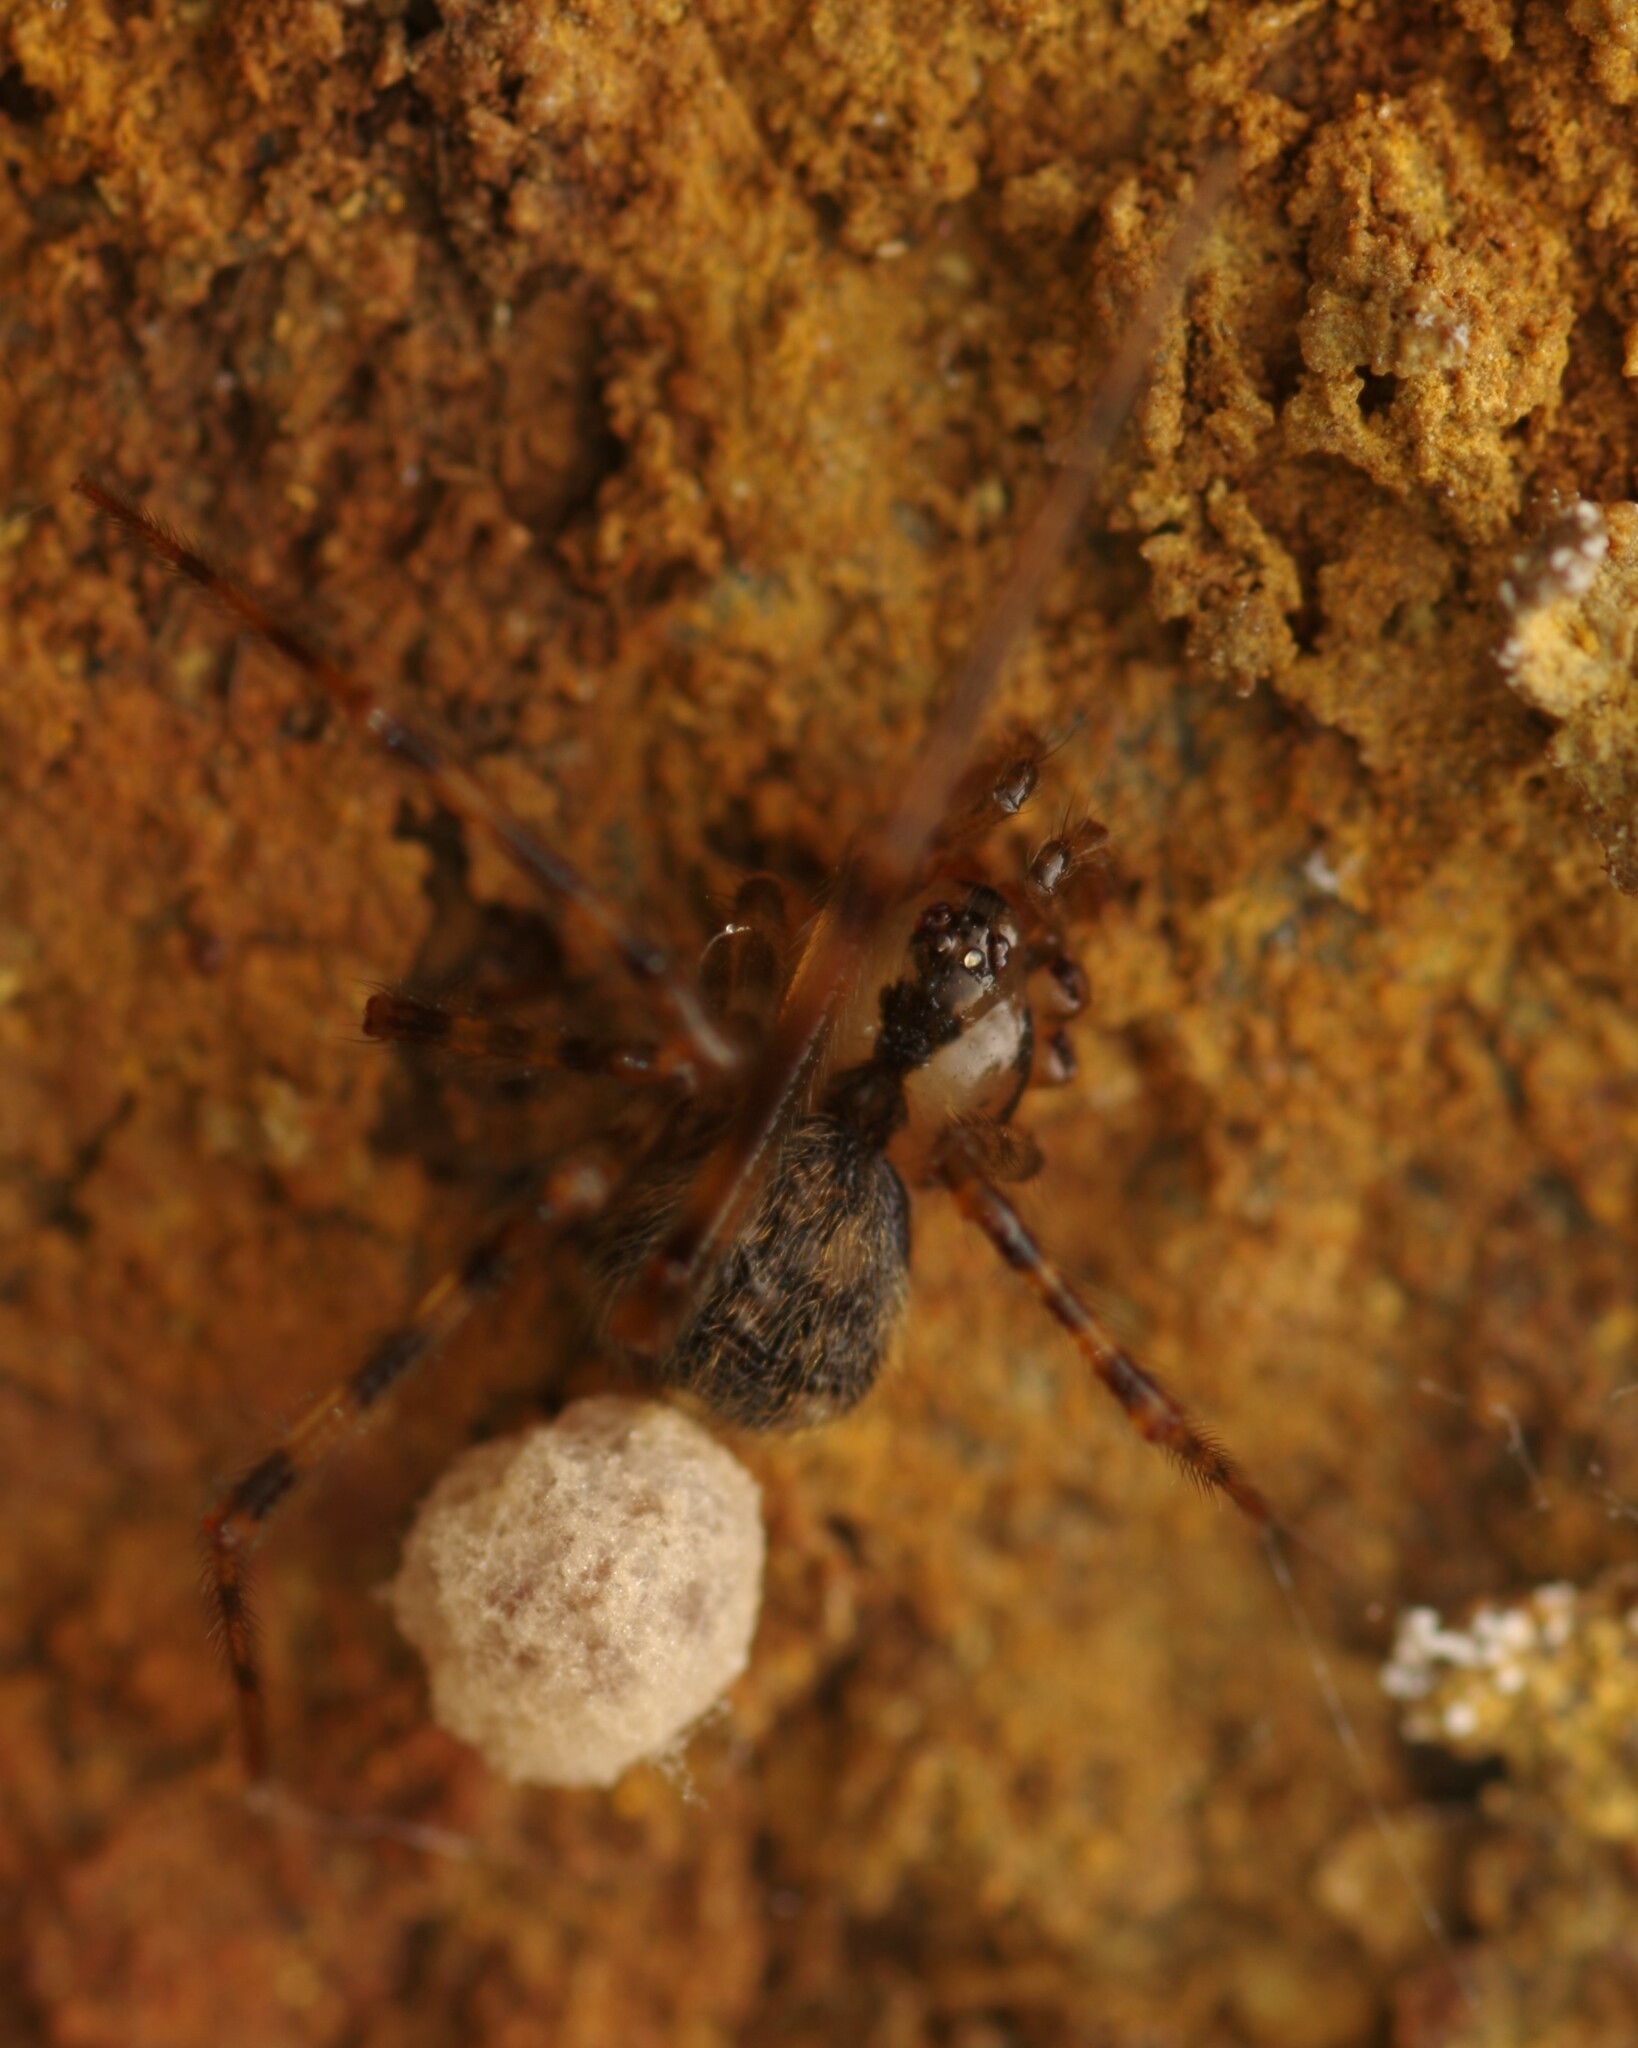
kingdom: Animalia
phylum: Arthropoda
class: Arachnida
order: Araneae
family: Nesticidae
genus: Nesticus
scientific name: Nesticus cellulanus
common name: Comb-footed cellar spider
